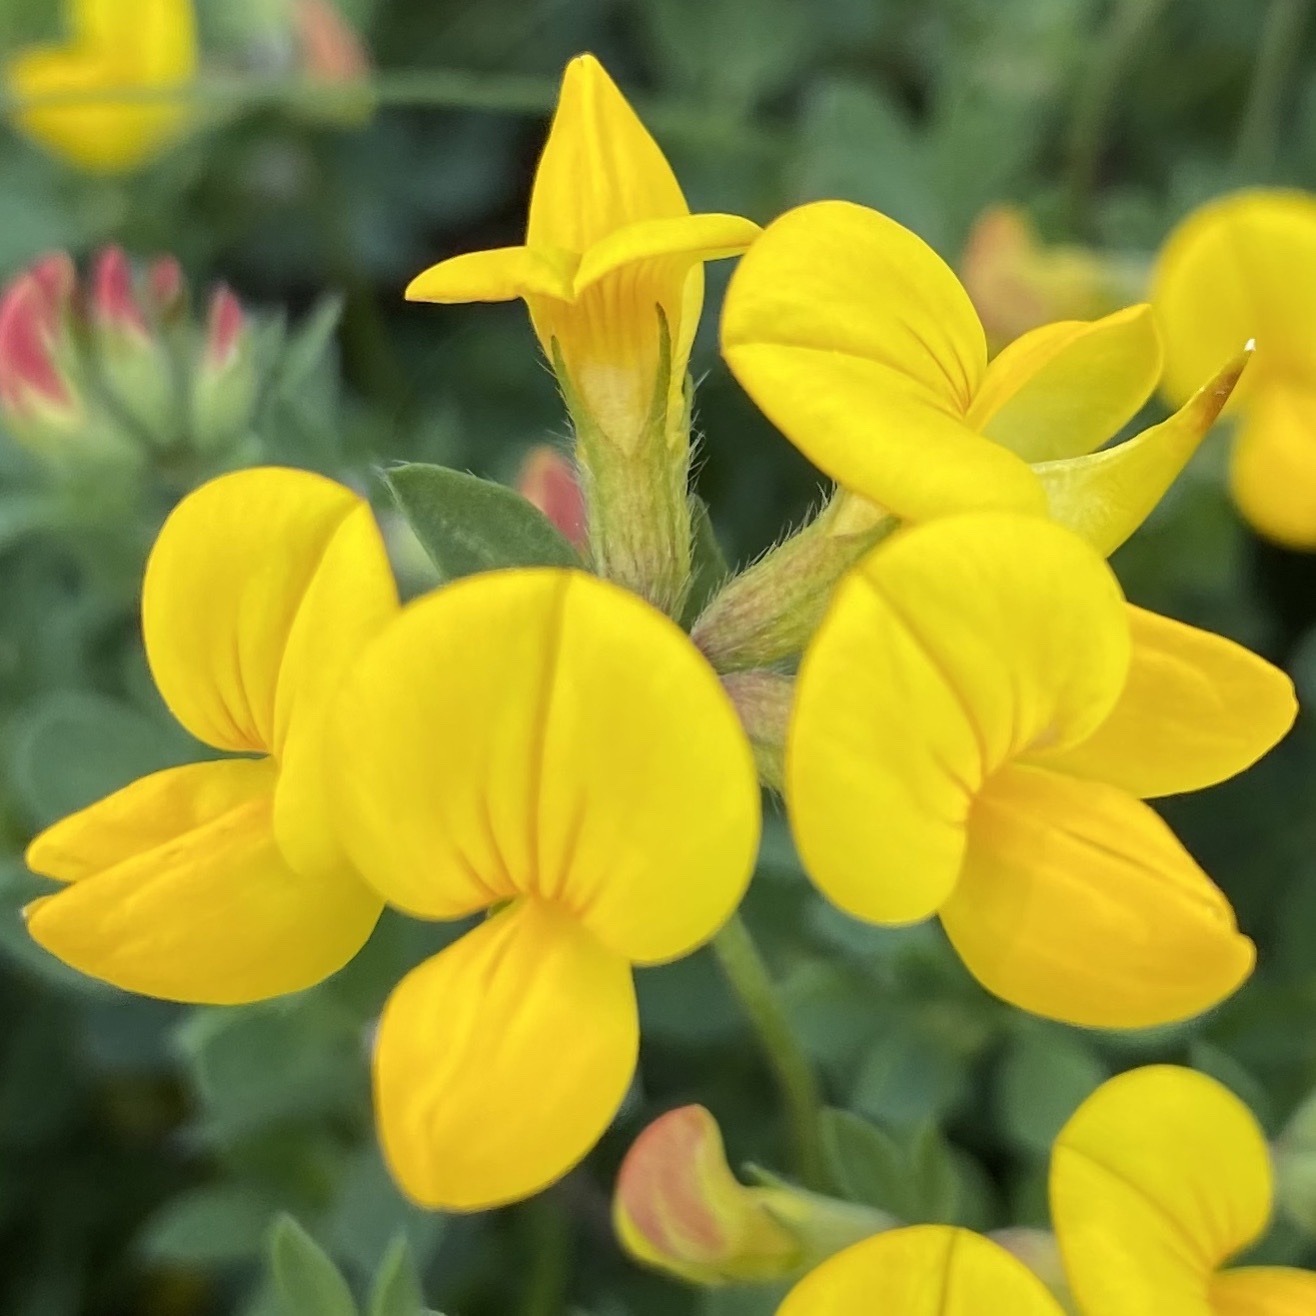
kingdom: Plantae
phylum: Tracheophyta
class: Magnoliopsida
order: Fabales
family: Fabaceae
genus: Lotus
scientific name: Lotus corniculatus
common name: Common bird's-foot-trefoil
